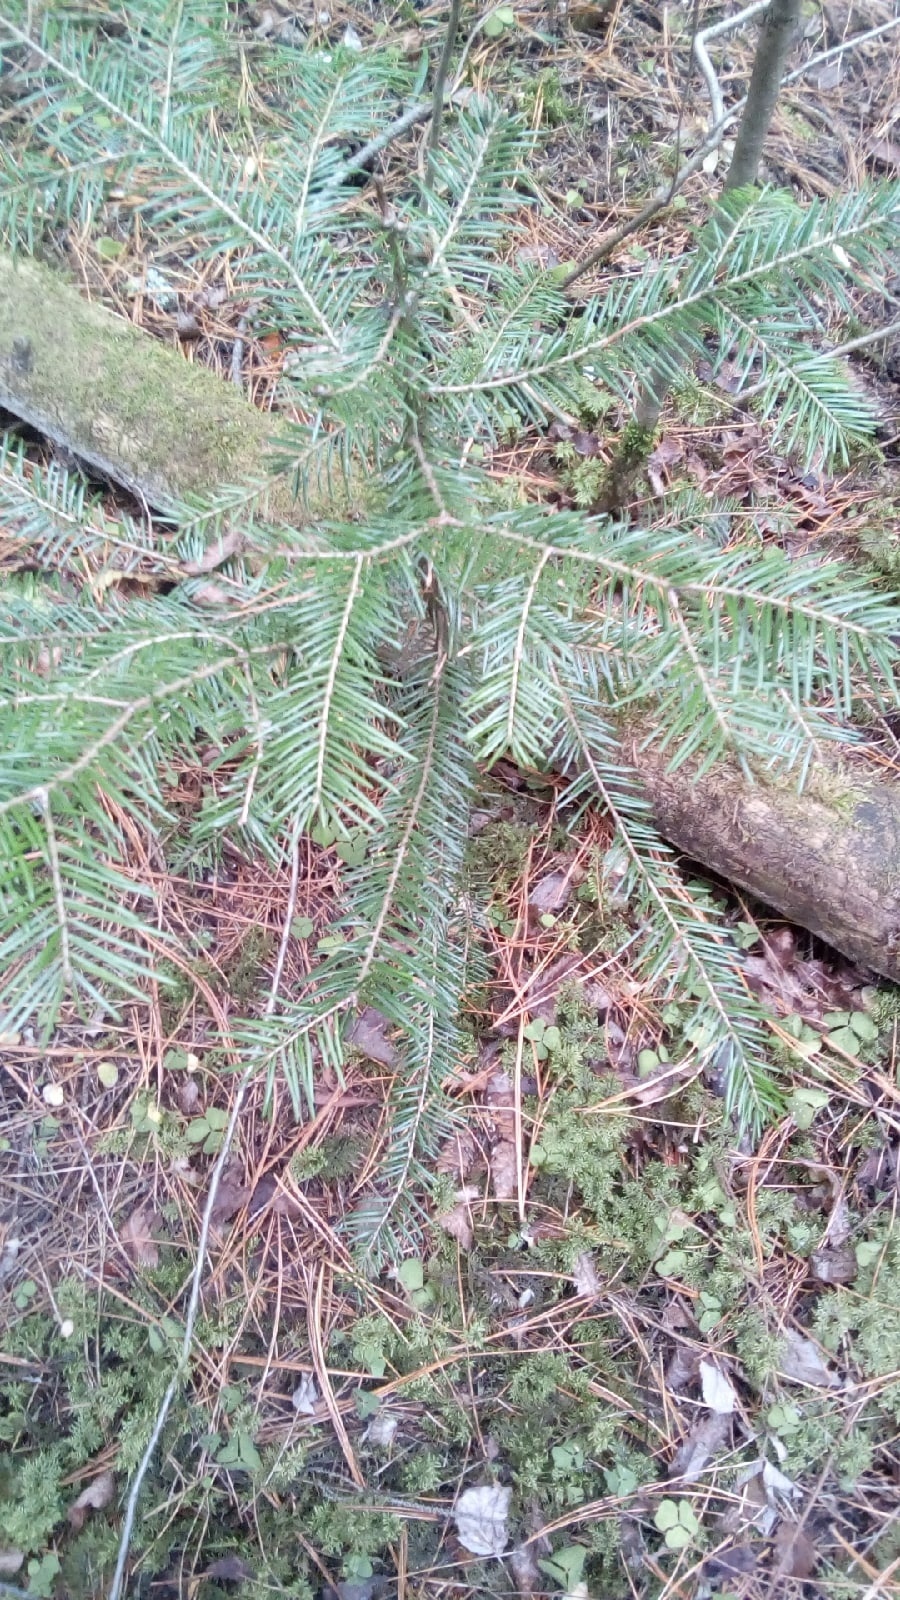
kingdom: Plantae
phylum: Tracheophyta
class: Pinopsida
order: Pinales
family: Pinaceae
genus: Abies
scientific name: Abies sibirica
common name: Siberian fir
